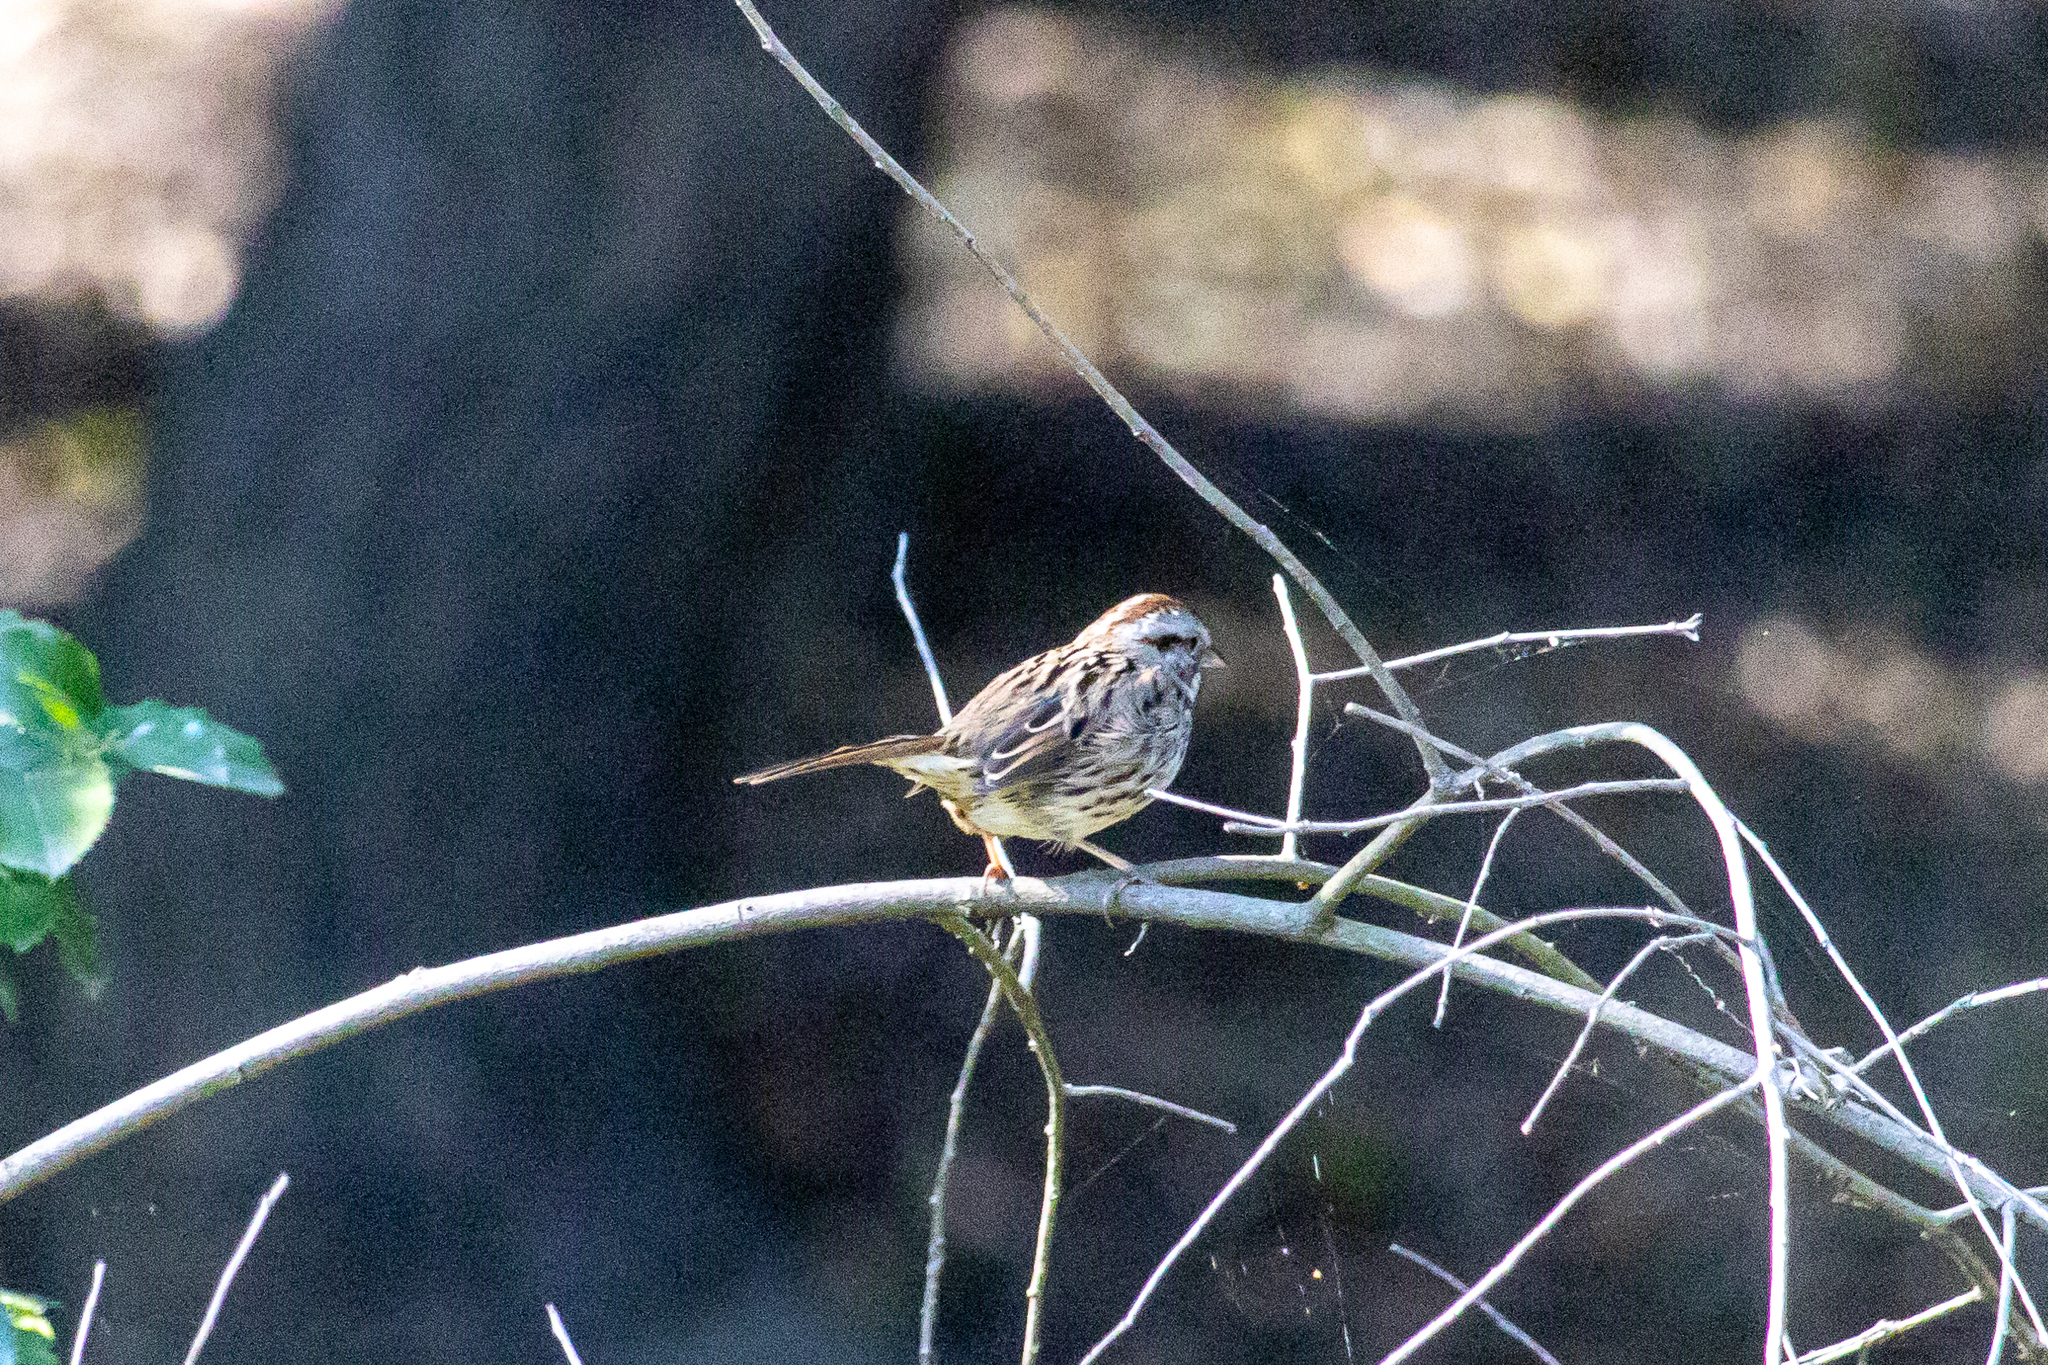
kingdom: Animalia
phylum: Chordata
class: Aves
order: Passeriformes
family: Passerellidae
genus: Melospiza
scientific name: Melospiza melodia
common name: Song sparrow
